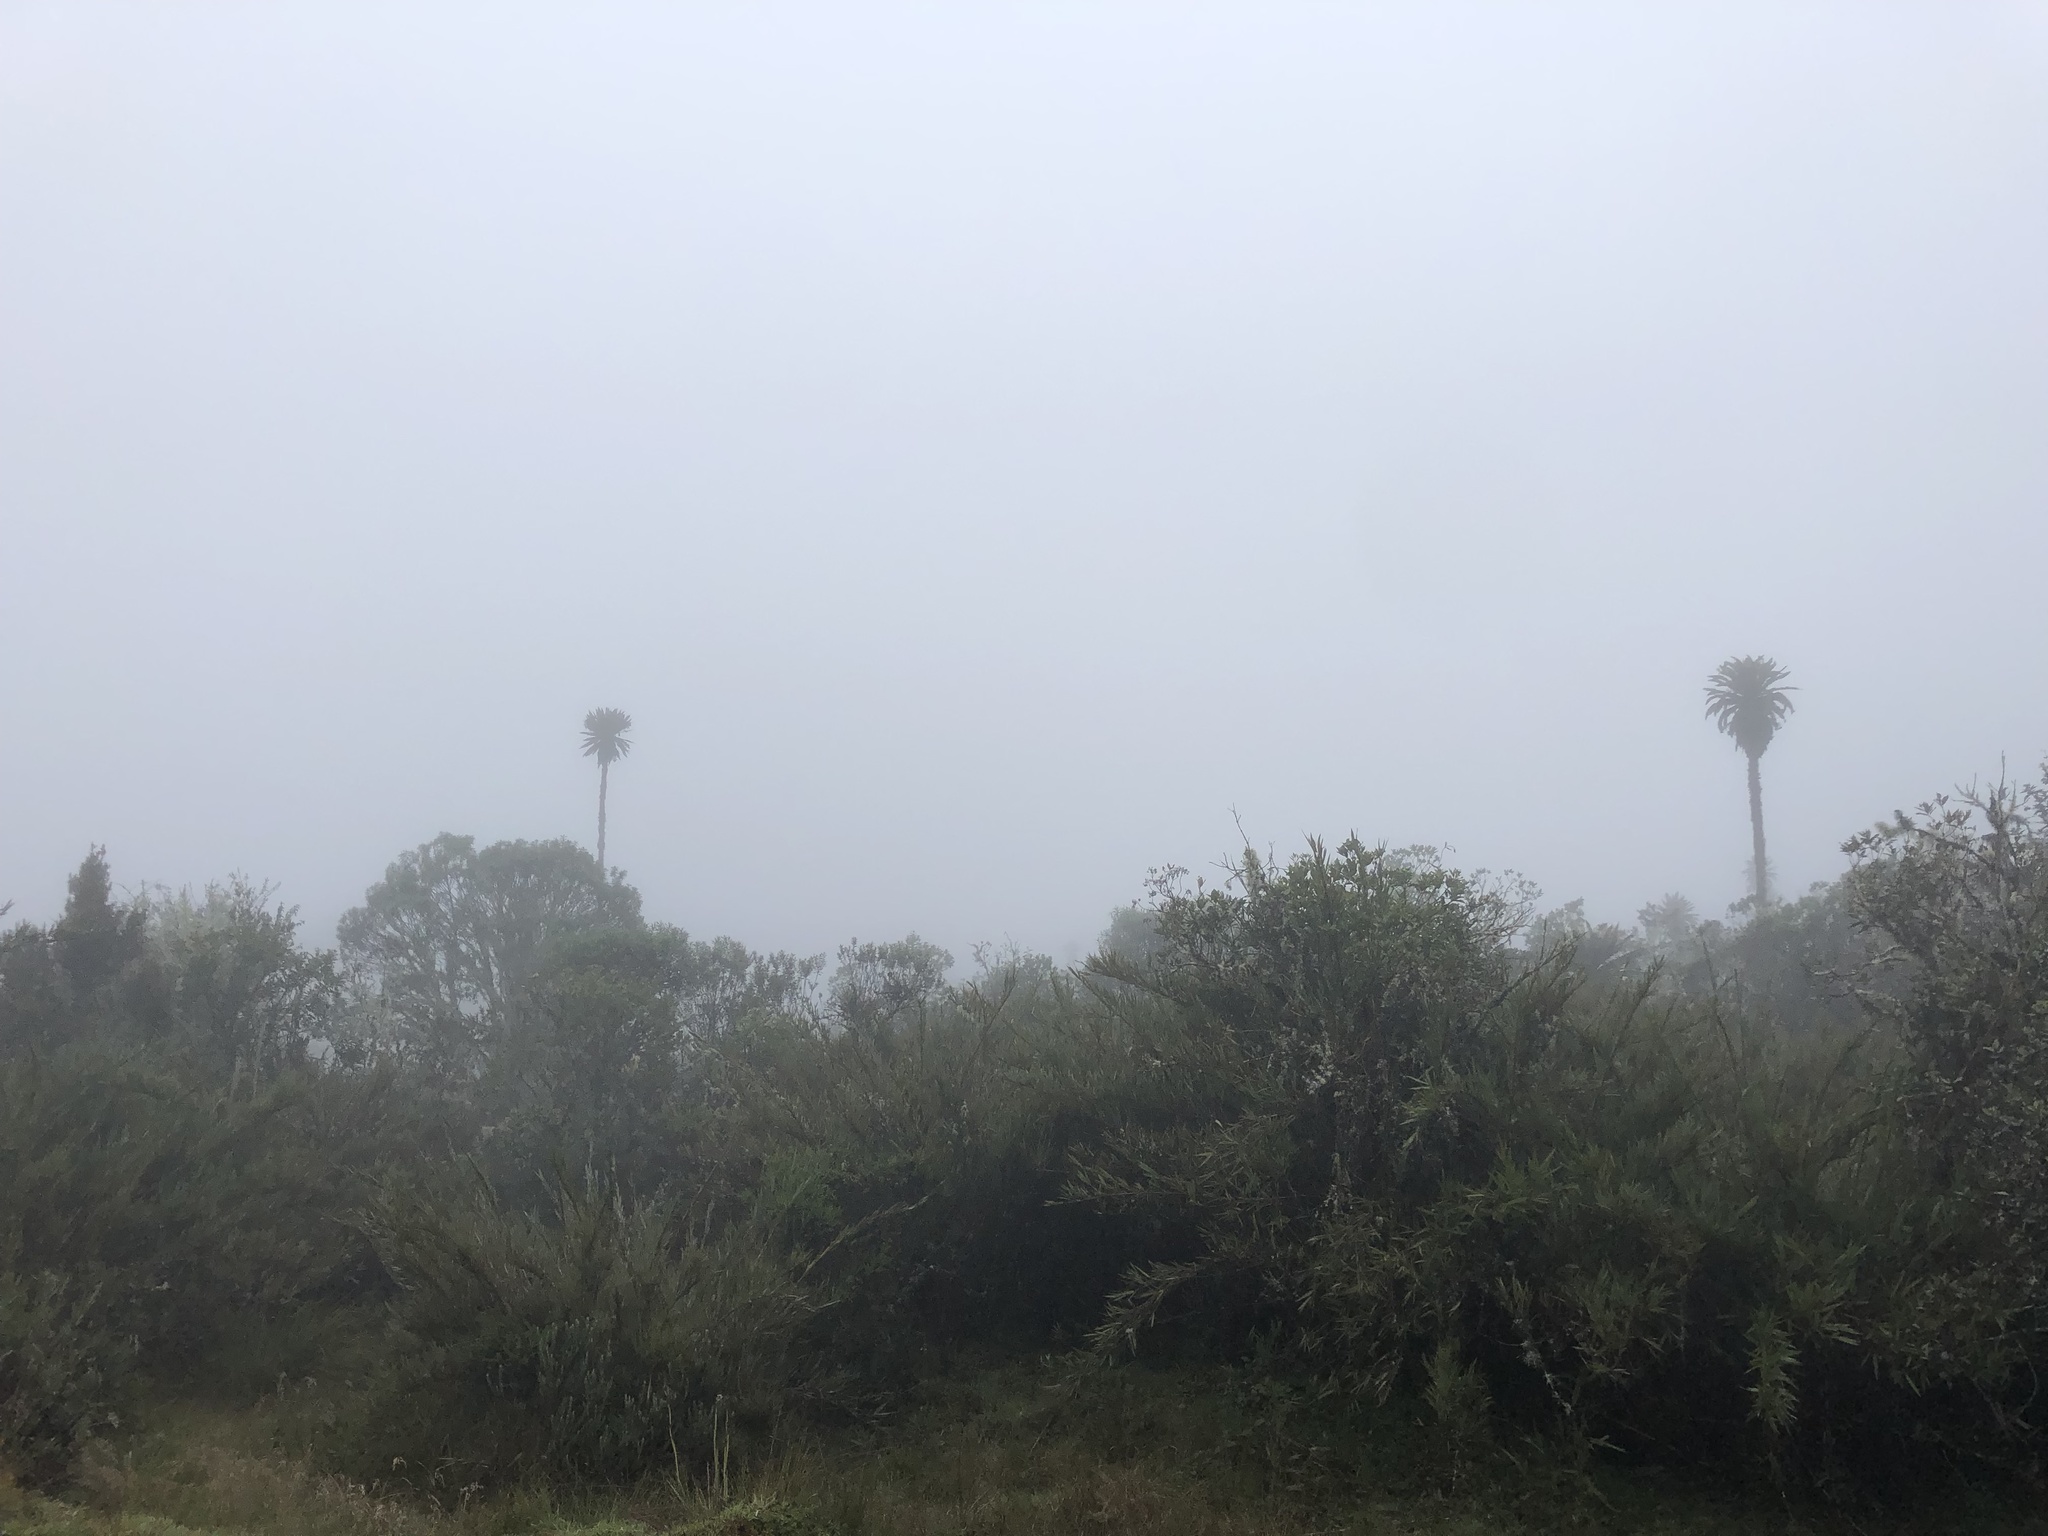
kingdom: Plantae
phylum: Tracheophyta
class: Magnoliopsida
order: Asterales
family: Asteraceae
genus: Espeletia
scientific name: Espeletia uribei
